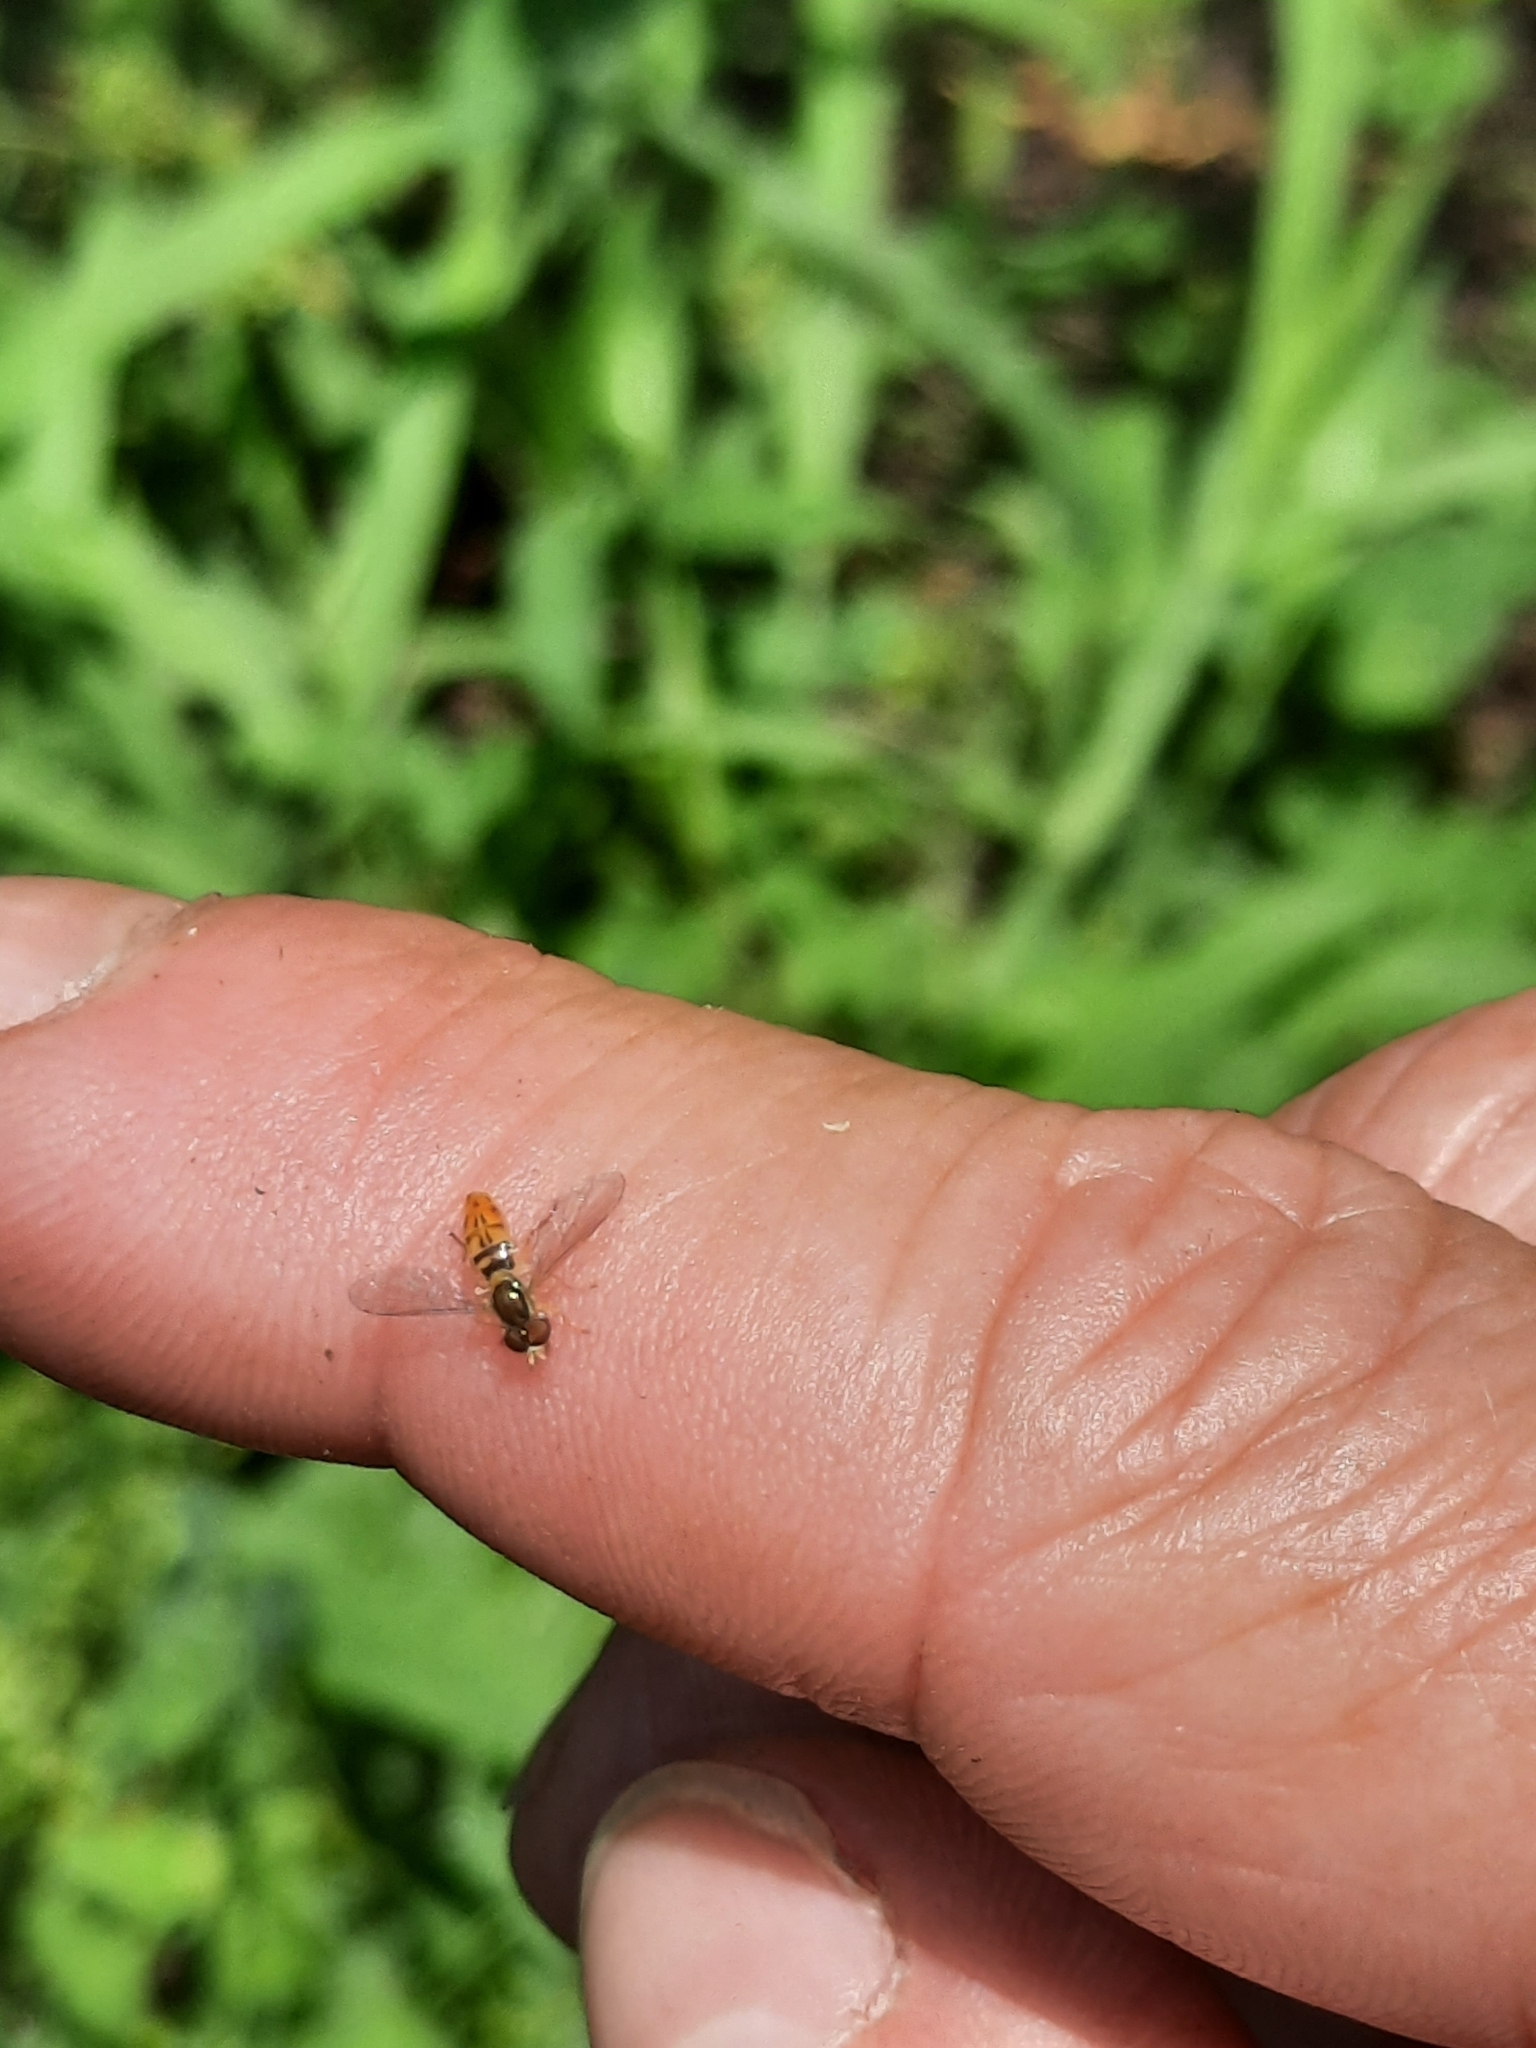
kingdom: Animalia
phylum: Arthropoda
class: Insecta
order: Diptera
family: Syrphidae
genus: Toxomerus
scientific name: Toxomerus marginatus
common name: Syrphid fly
